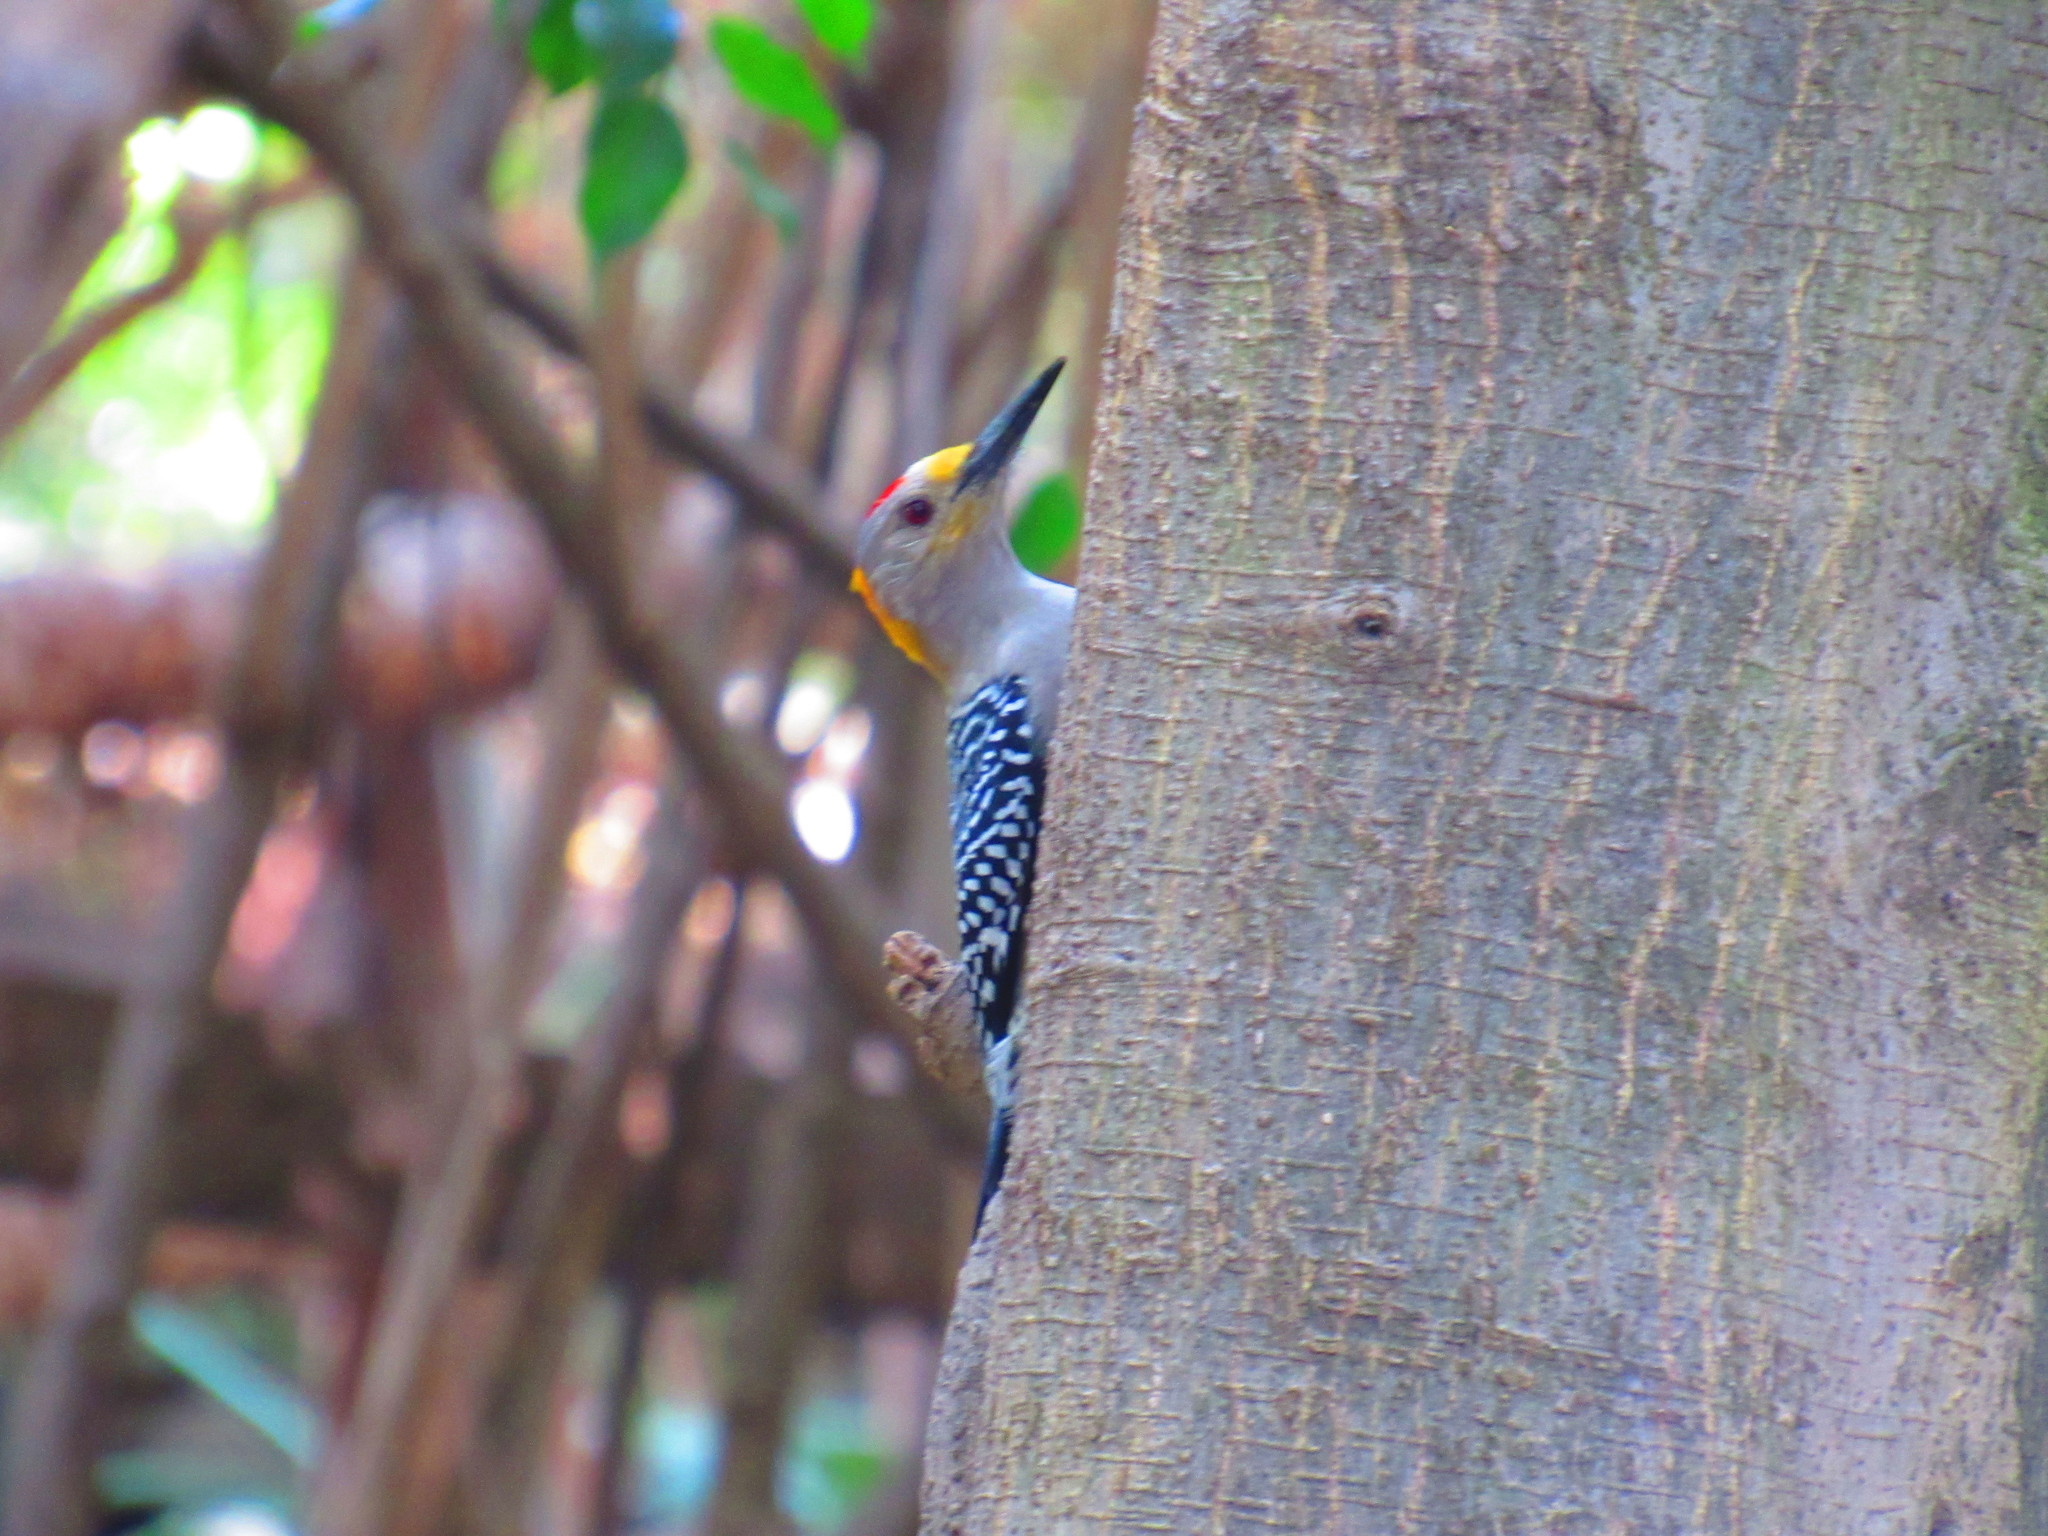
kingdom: Animalia
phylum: Chordata
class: Aves
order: Piciformes
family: Picidae
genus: Melanerpes
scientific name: Melanerpes aurifrons
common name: Golden-fronted woodpecker
